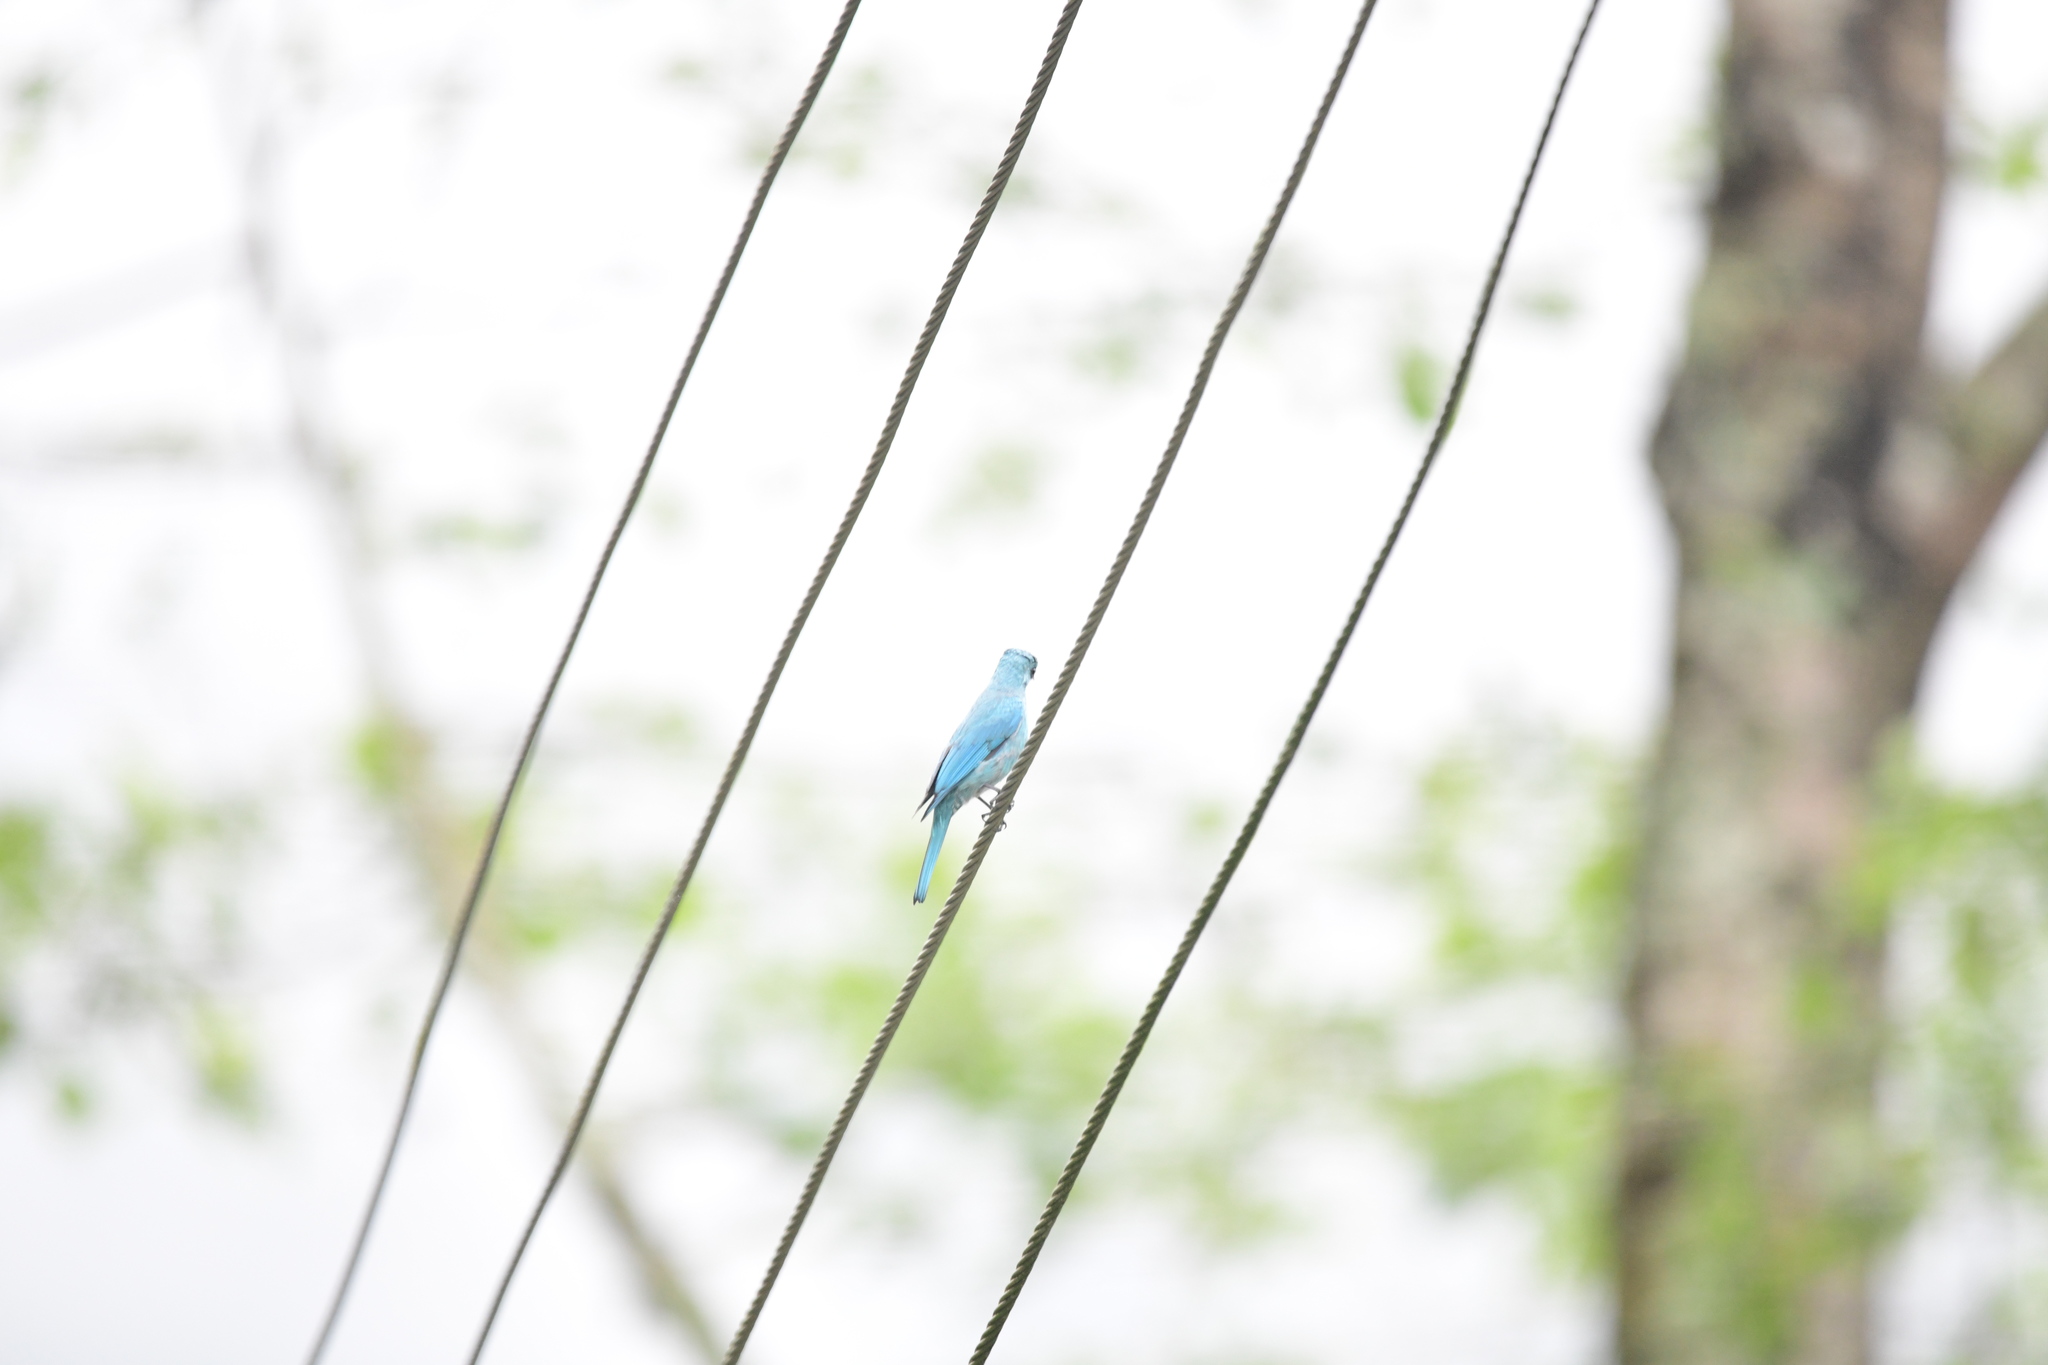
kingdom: Animalia
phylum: Chordata
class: Aves
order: Passeriformes
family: Muscicapidae
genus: Eumyias
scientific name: Eumyias thalassinus
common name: Verditer flycatcher
